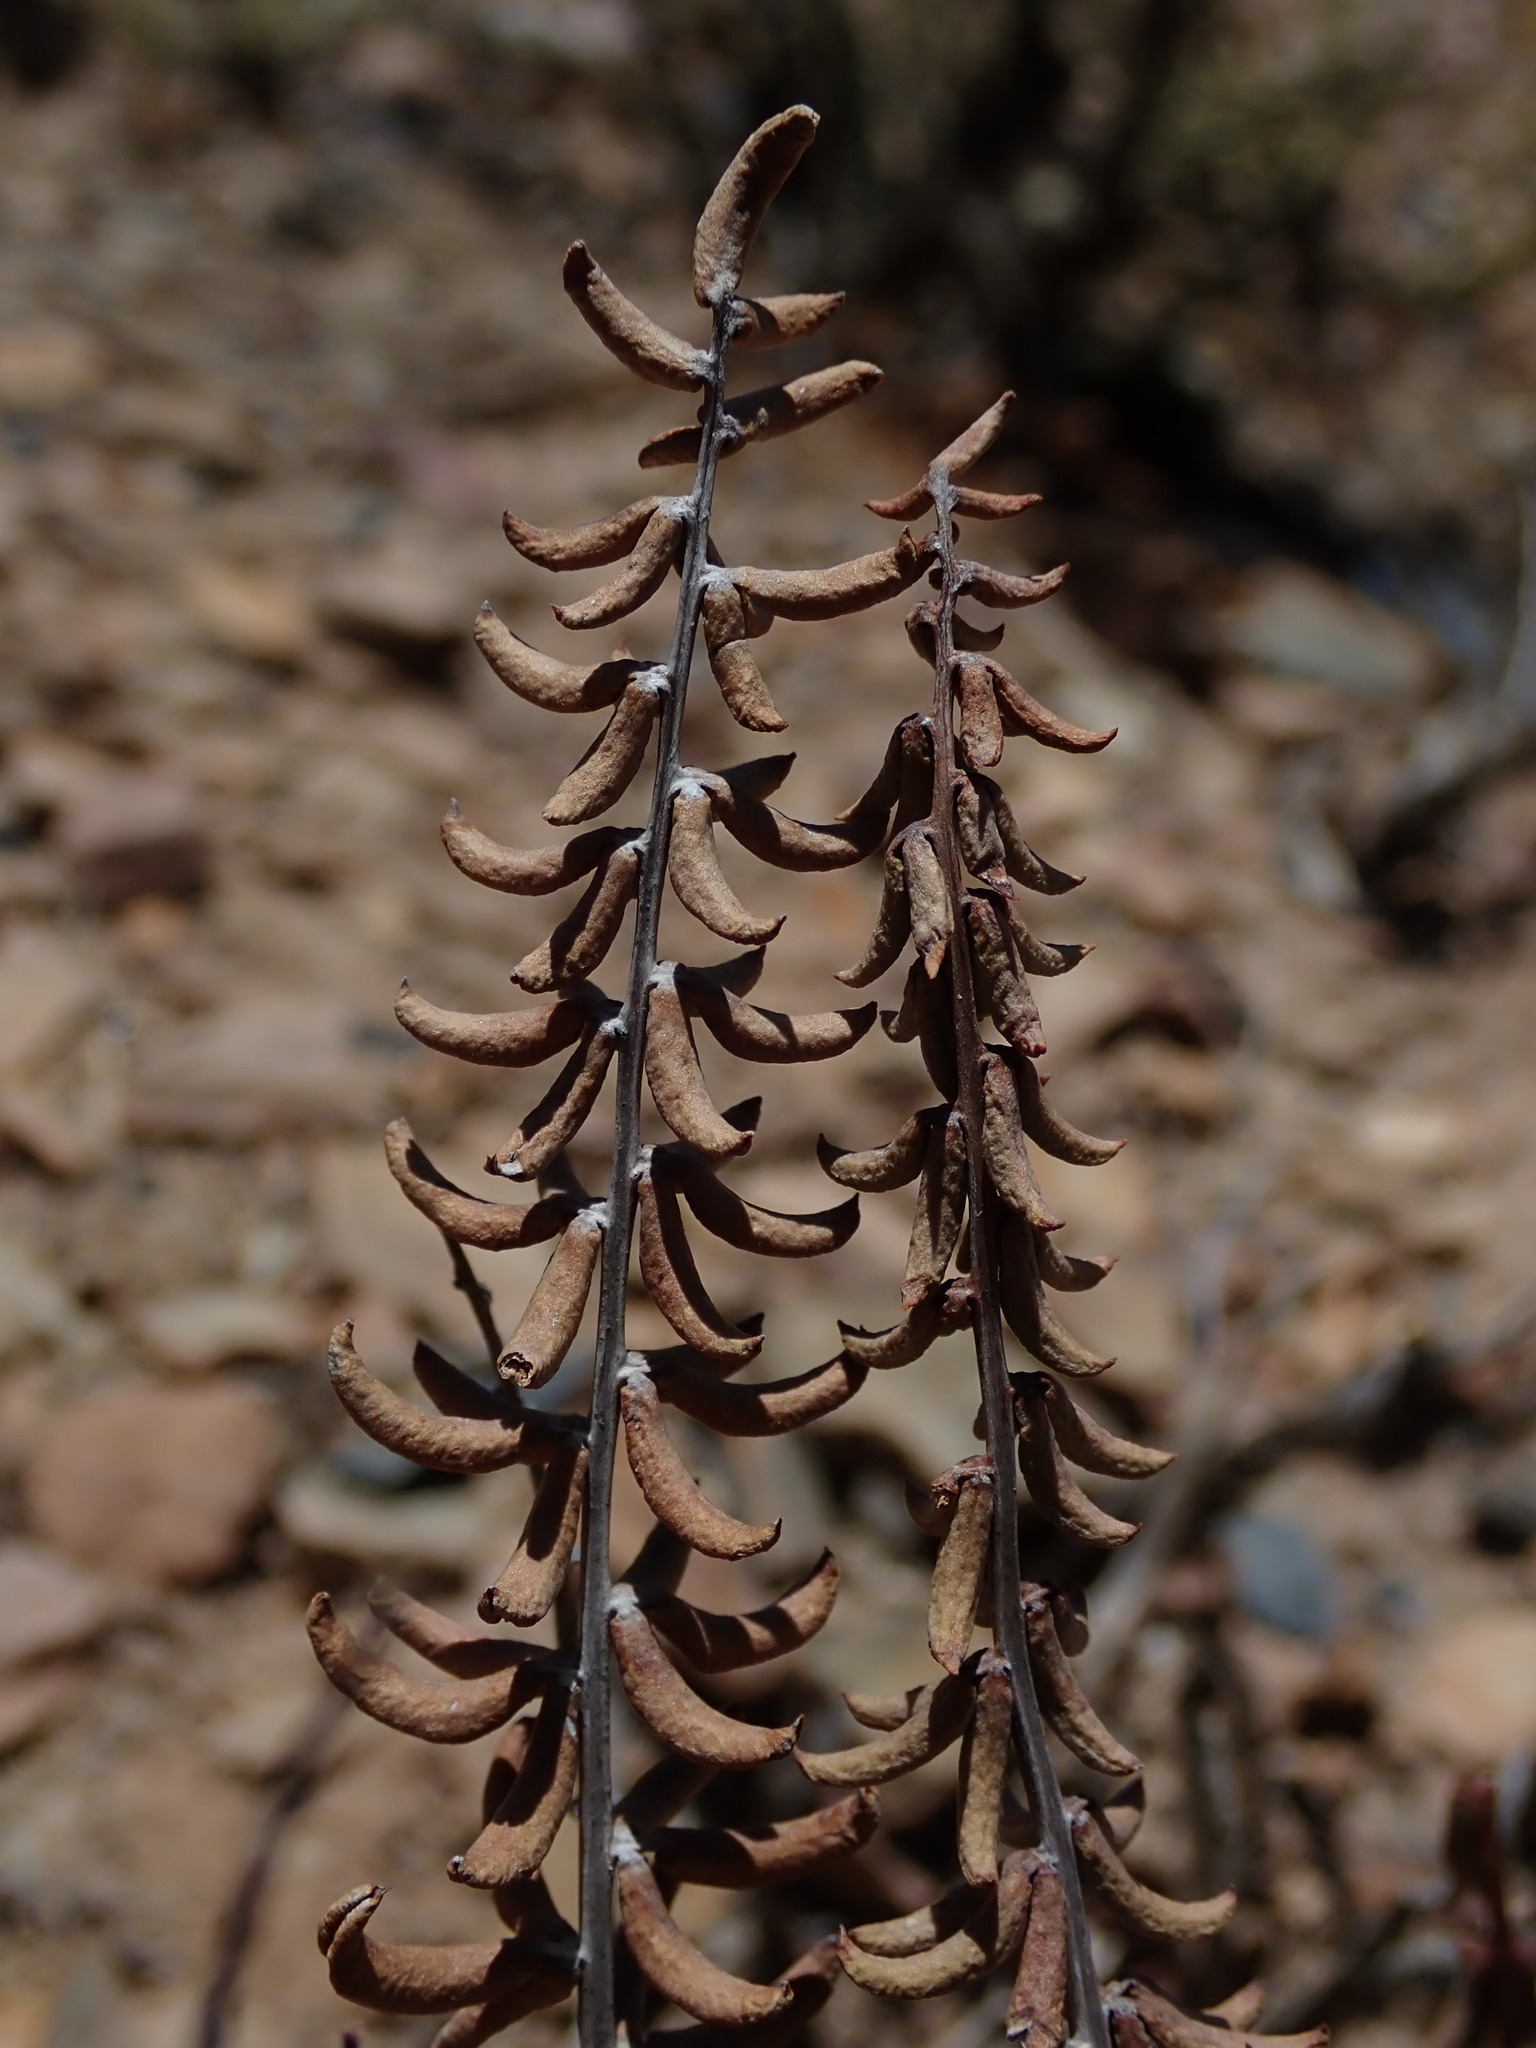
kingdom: Plantae
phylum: Tracheophyta
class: Polypodiopsida
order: Polypodiales
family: Pteridaceae
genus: Pellaea
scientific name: Pellaea ternifolia
